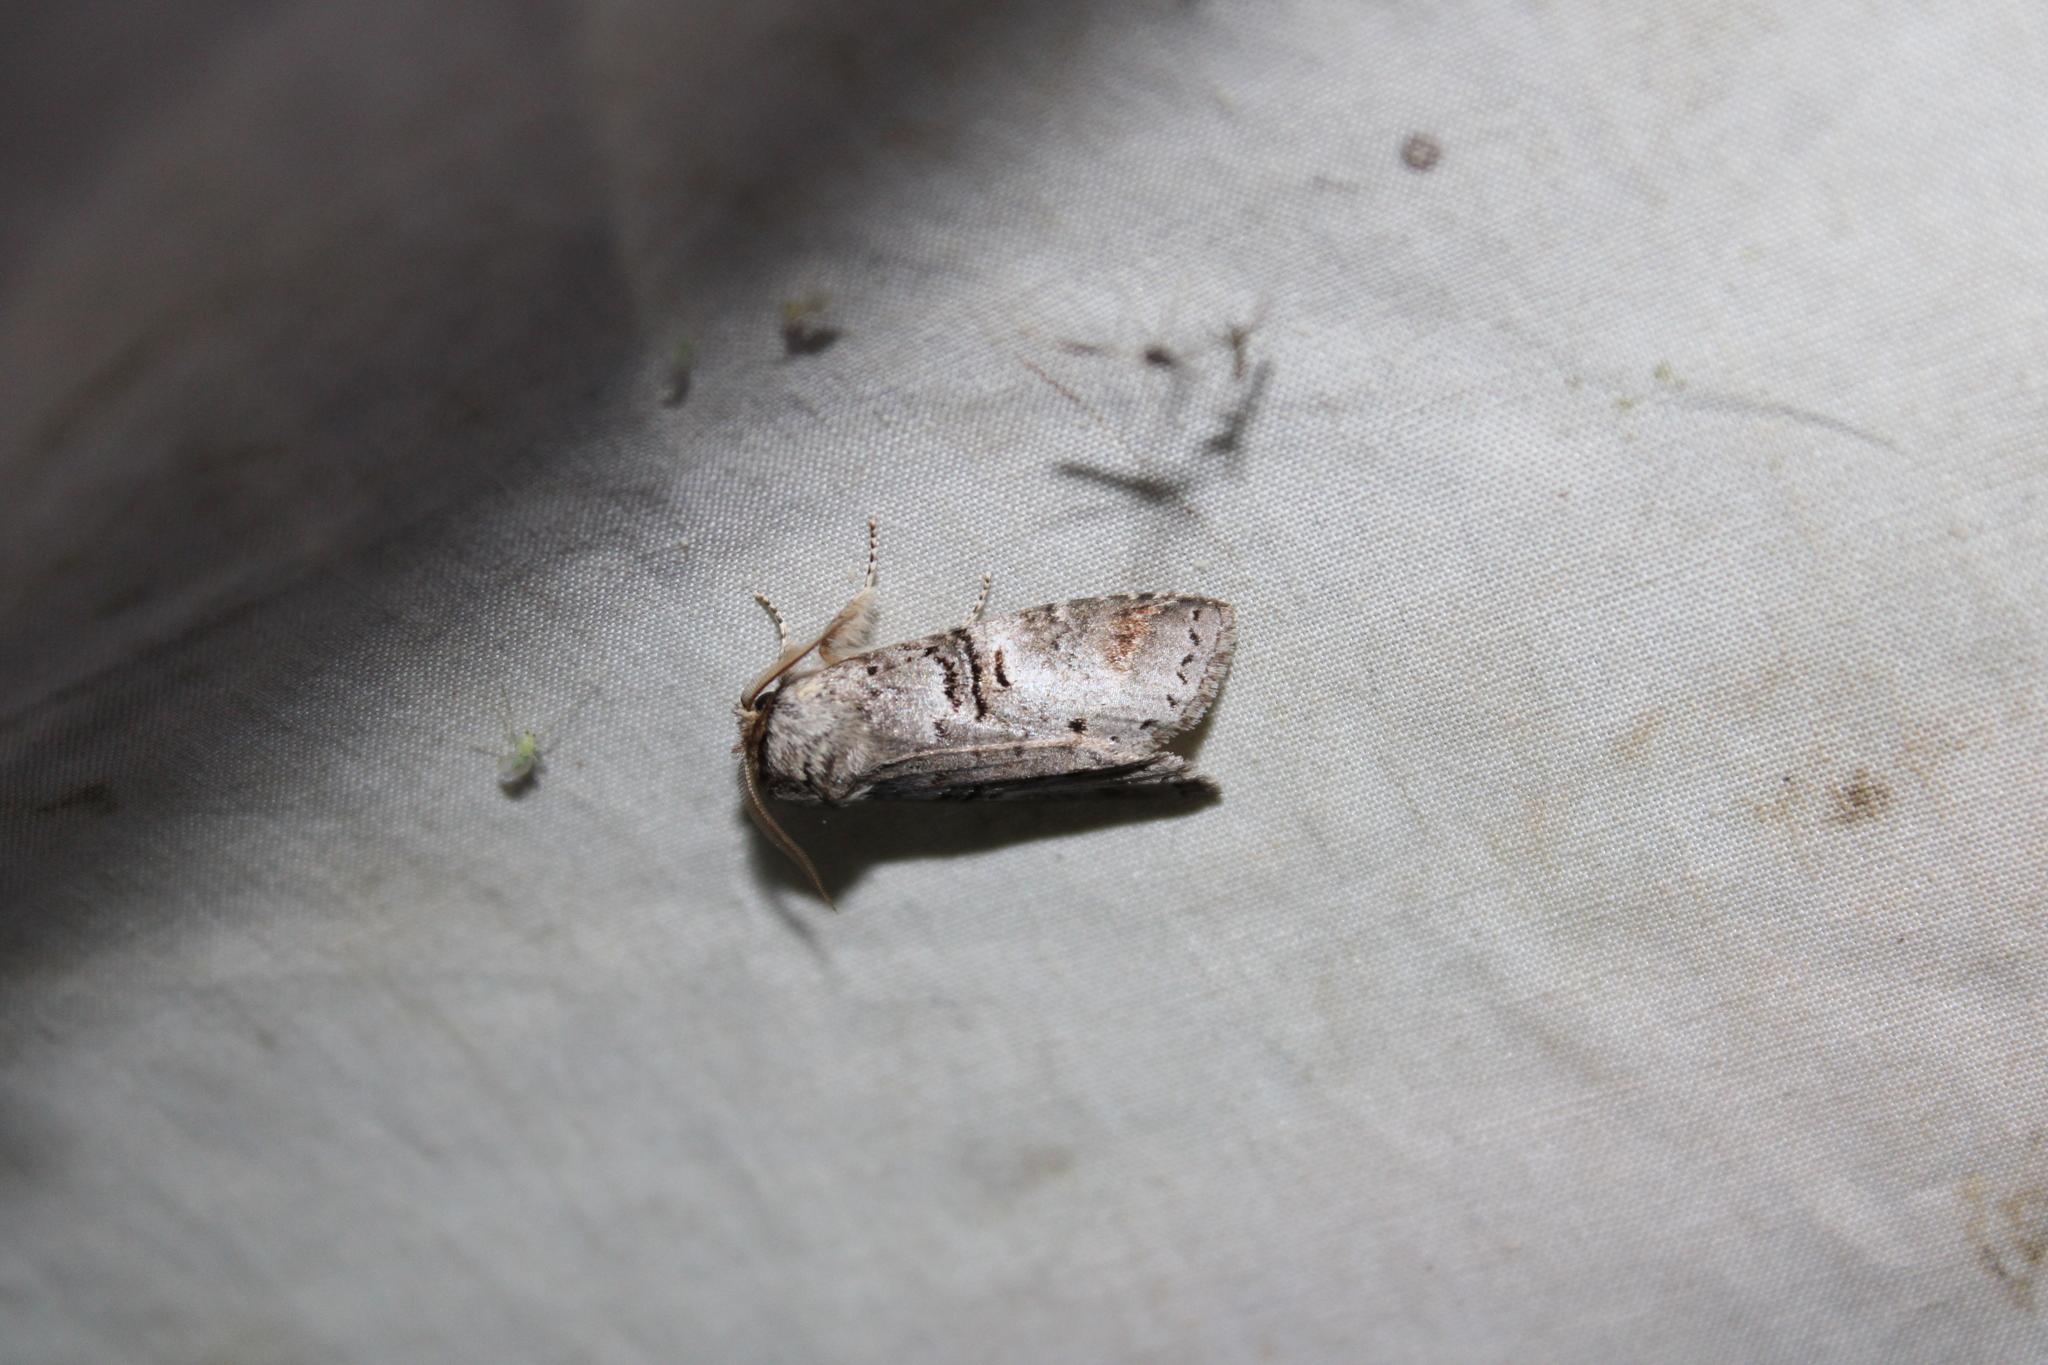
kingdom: Animalia
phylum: Arthropoda
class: Insecta
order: Lepidoptera
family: Notodontidae
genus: Ellida
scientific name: Ellida caniplaga
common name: Linden prominent
